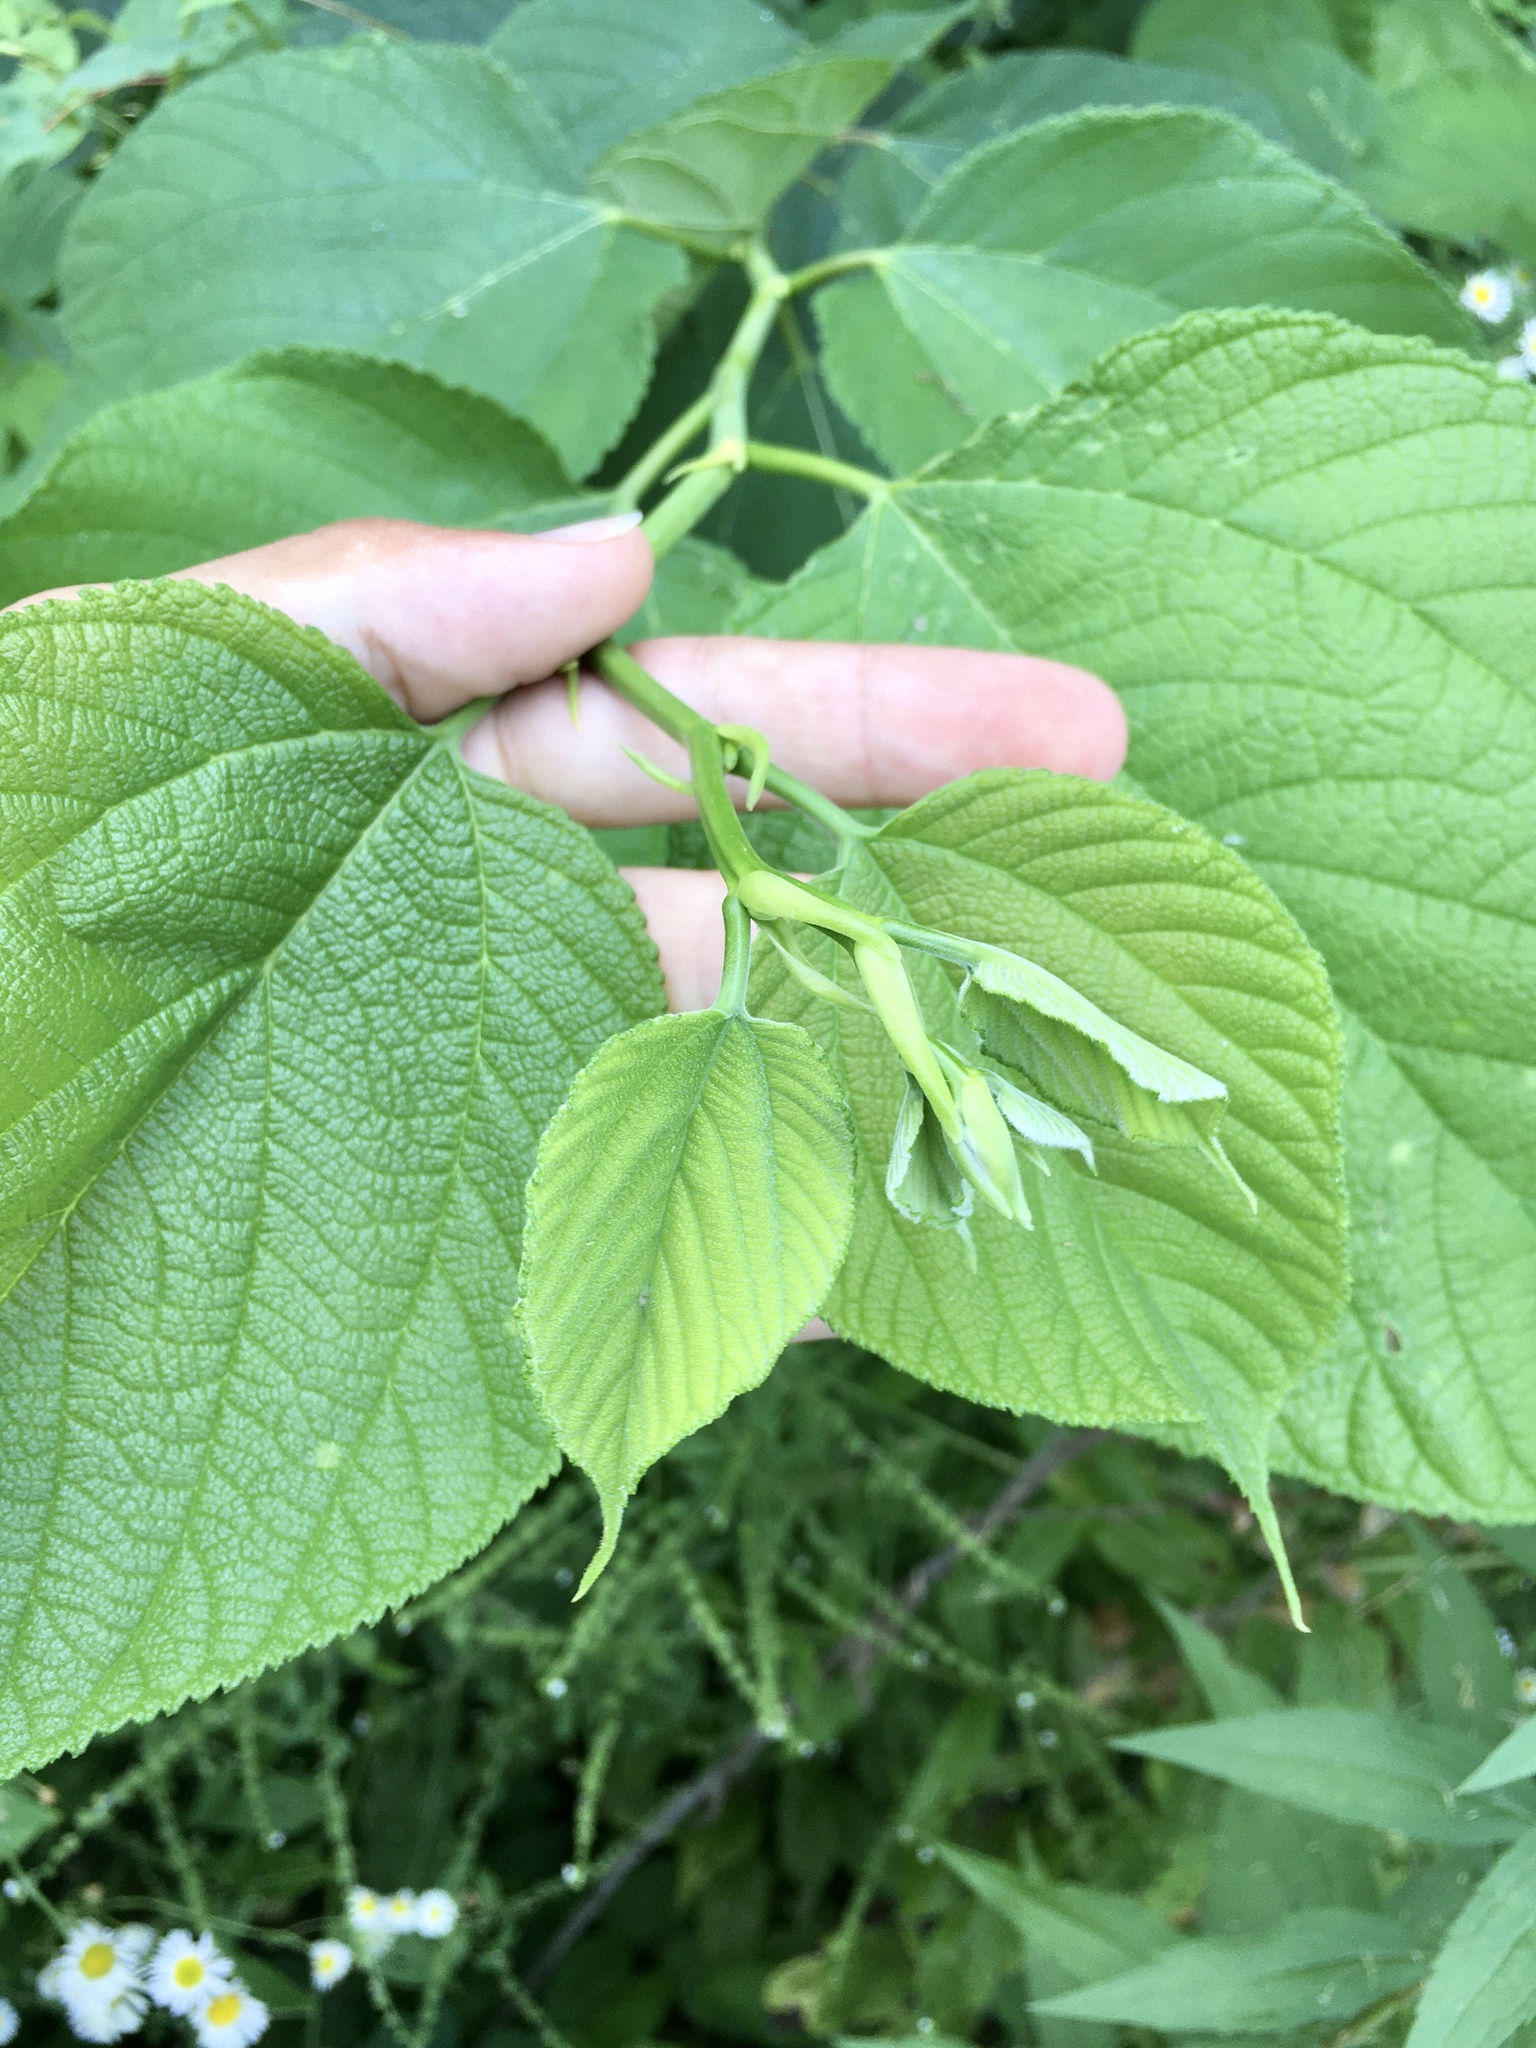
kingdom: Plantae
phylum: Tracheophyta
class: Magnoliopsida
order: Rosales
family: Moraceae
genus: Morus
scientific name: Morus rubra
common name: Red mulberry
